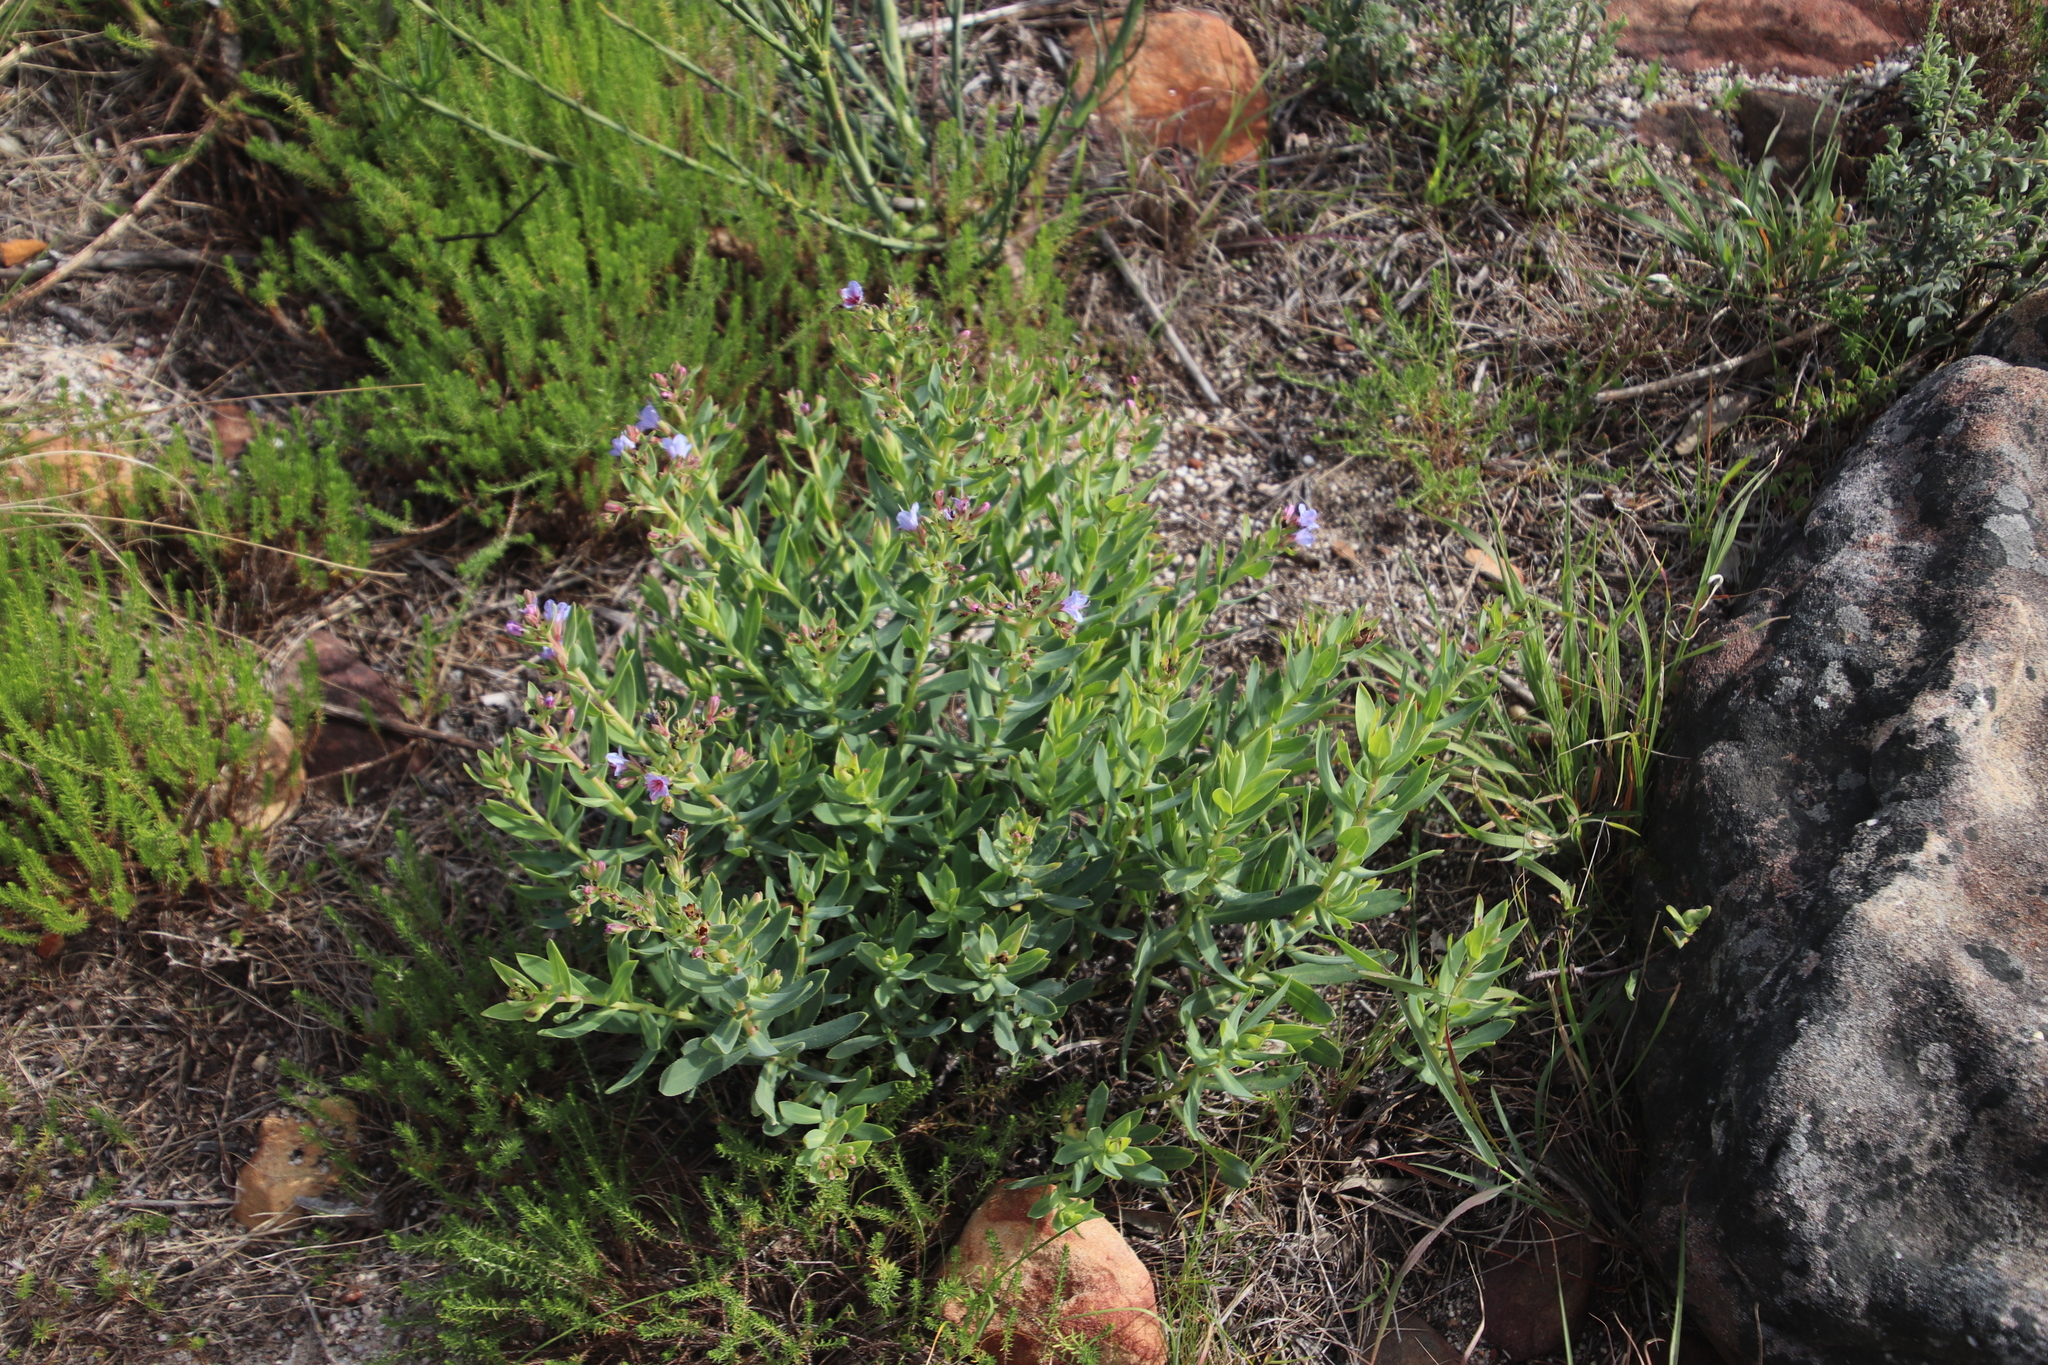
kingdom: Plantae
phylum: Tracheophyta
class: Magnoliopsida
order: Boraginales
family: Boraginaceae
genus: Lobostemon
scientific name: Lobostemon glaucophyllus
